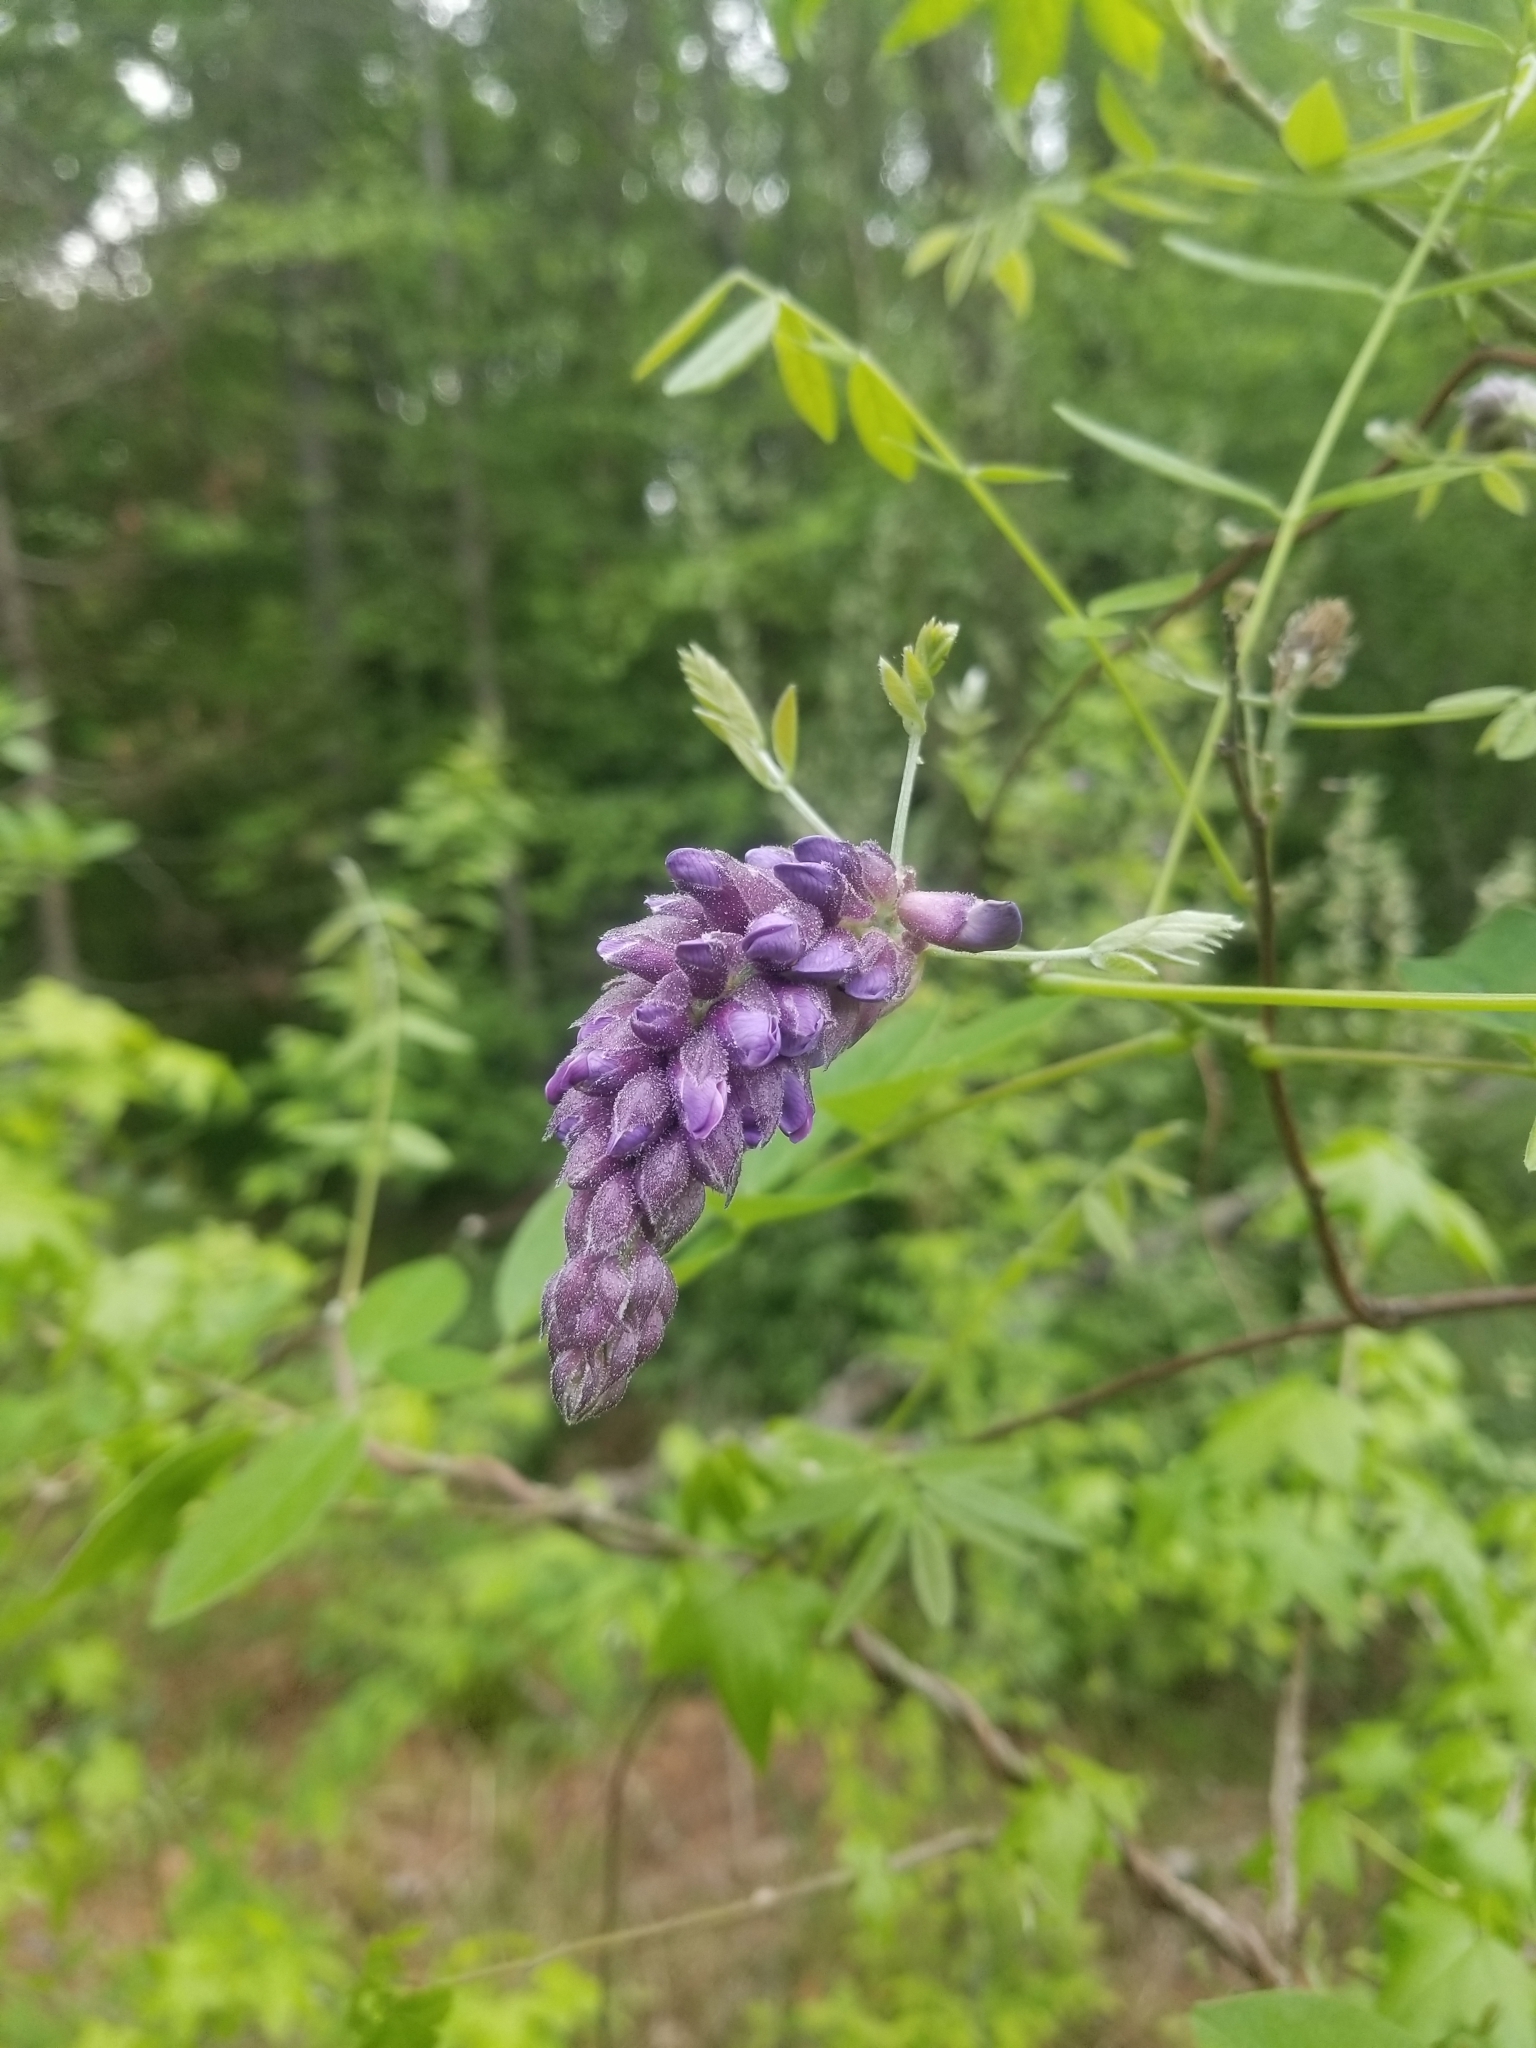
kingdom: Plantae
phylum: Tracheophyta
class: Magnoliopsida
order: Fabales
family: Fabaceae
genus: Wisteria
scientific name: Wisteria frutescens
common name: American wisteria
